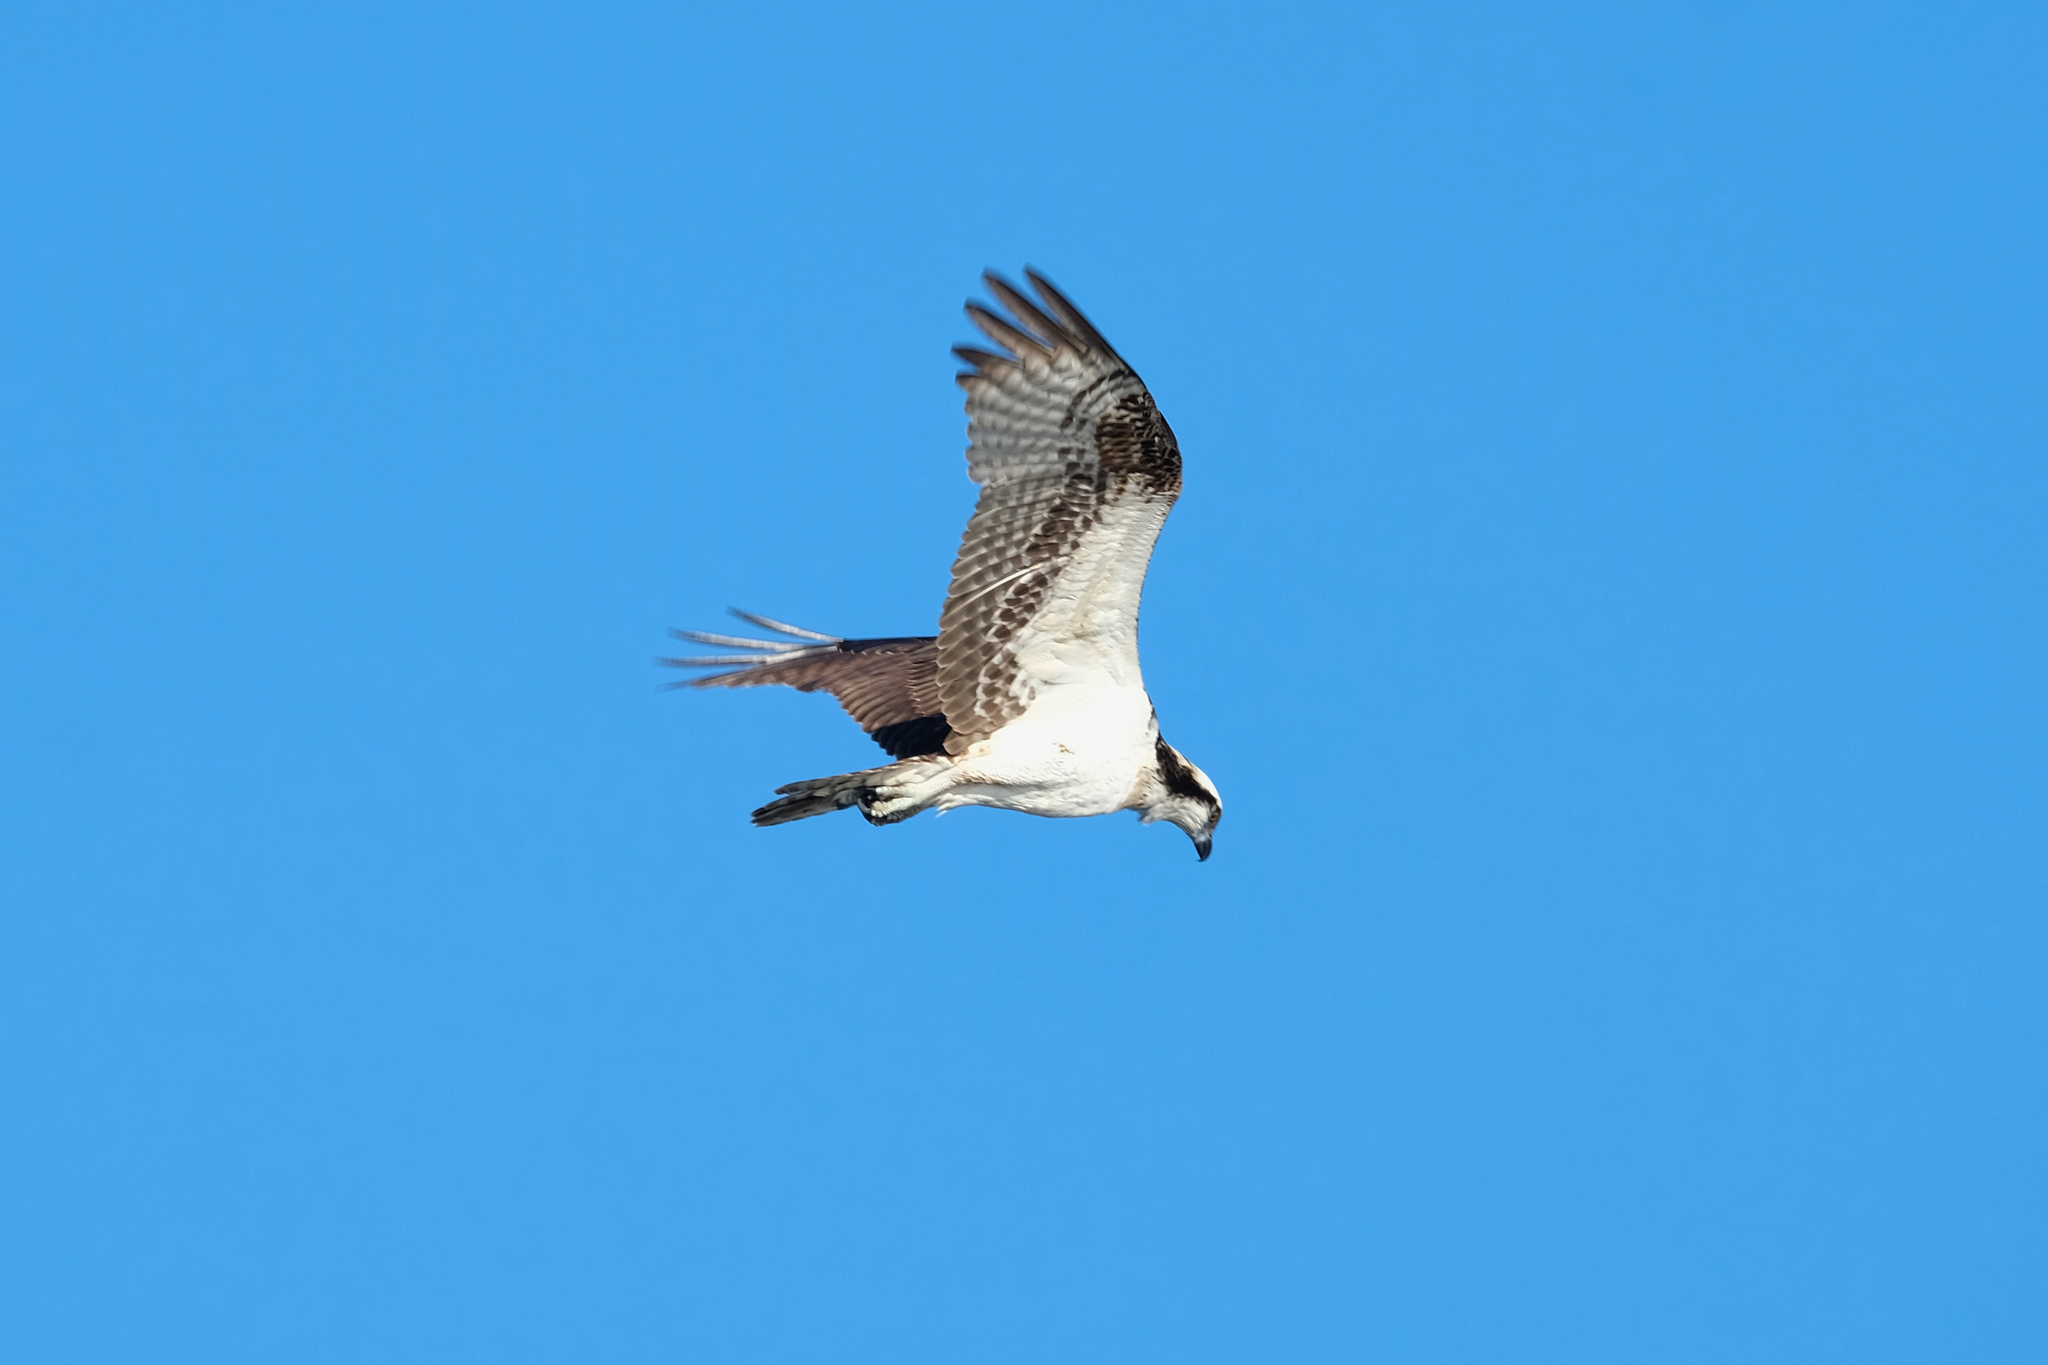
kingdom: Animalia
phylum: Chordata
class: Aves
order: Accipitriformes
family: Pandionidae
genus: Pandion
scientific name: Pandion haliaetus
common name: Osprey
